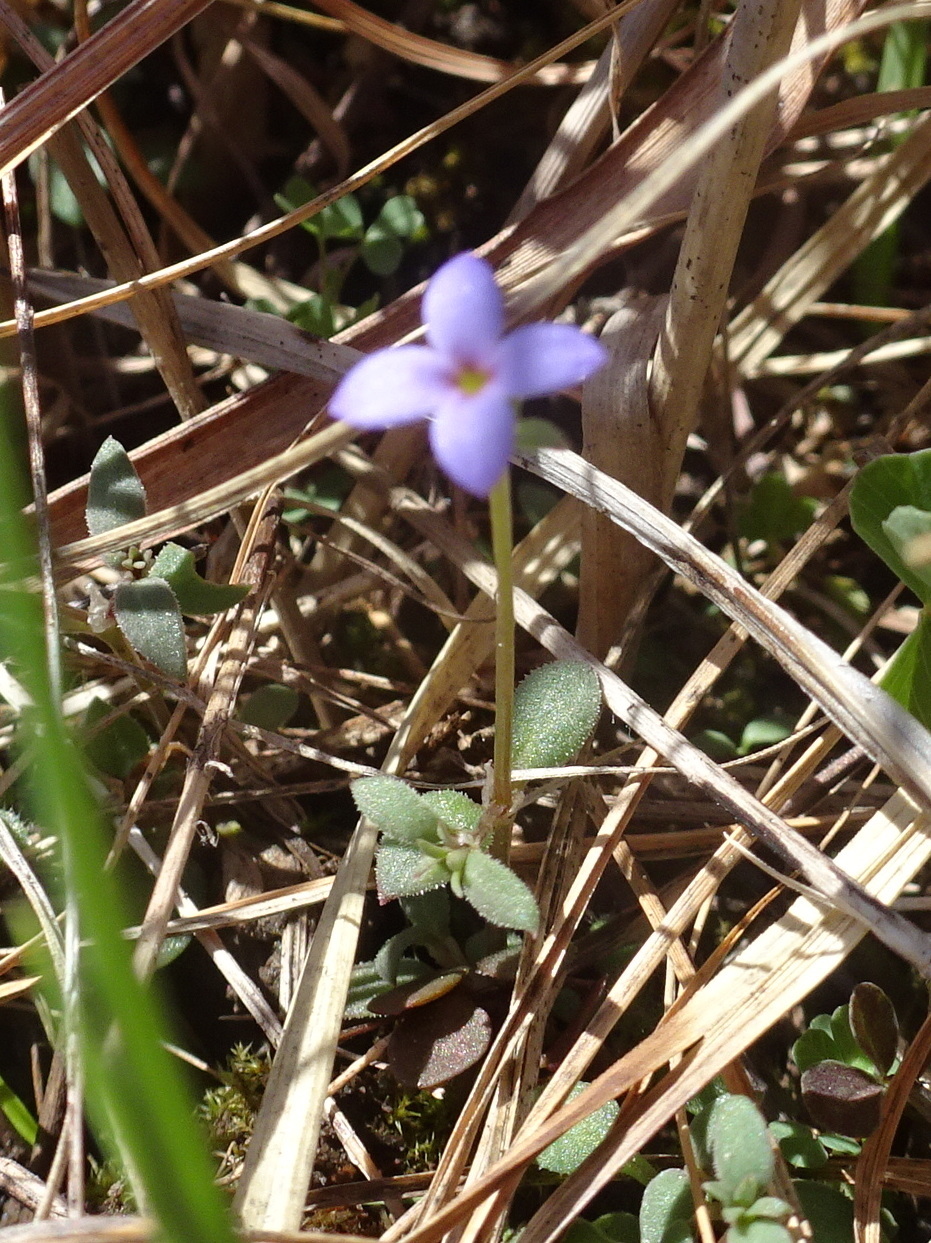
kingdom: Plantae
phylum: Tracheophyta
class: Magnoliopsida
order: Gentianales
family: Rubiaceae
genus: Houstonia
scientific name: Houstonia pusilla
